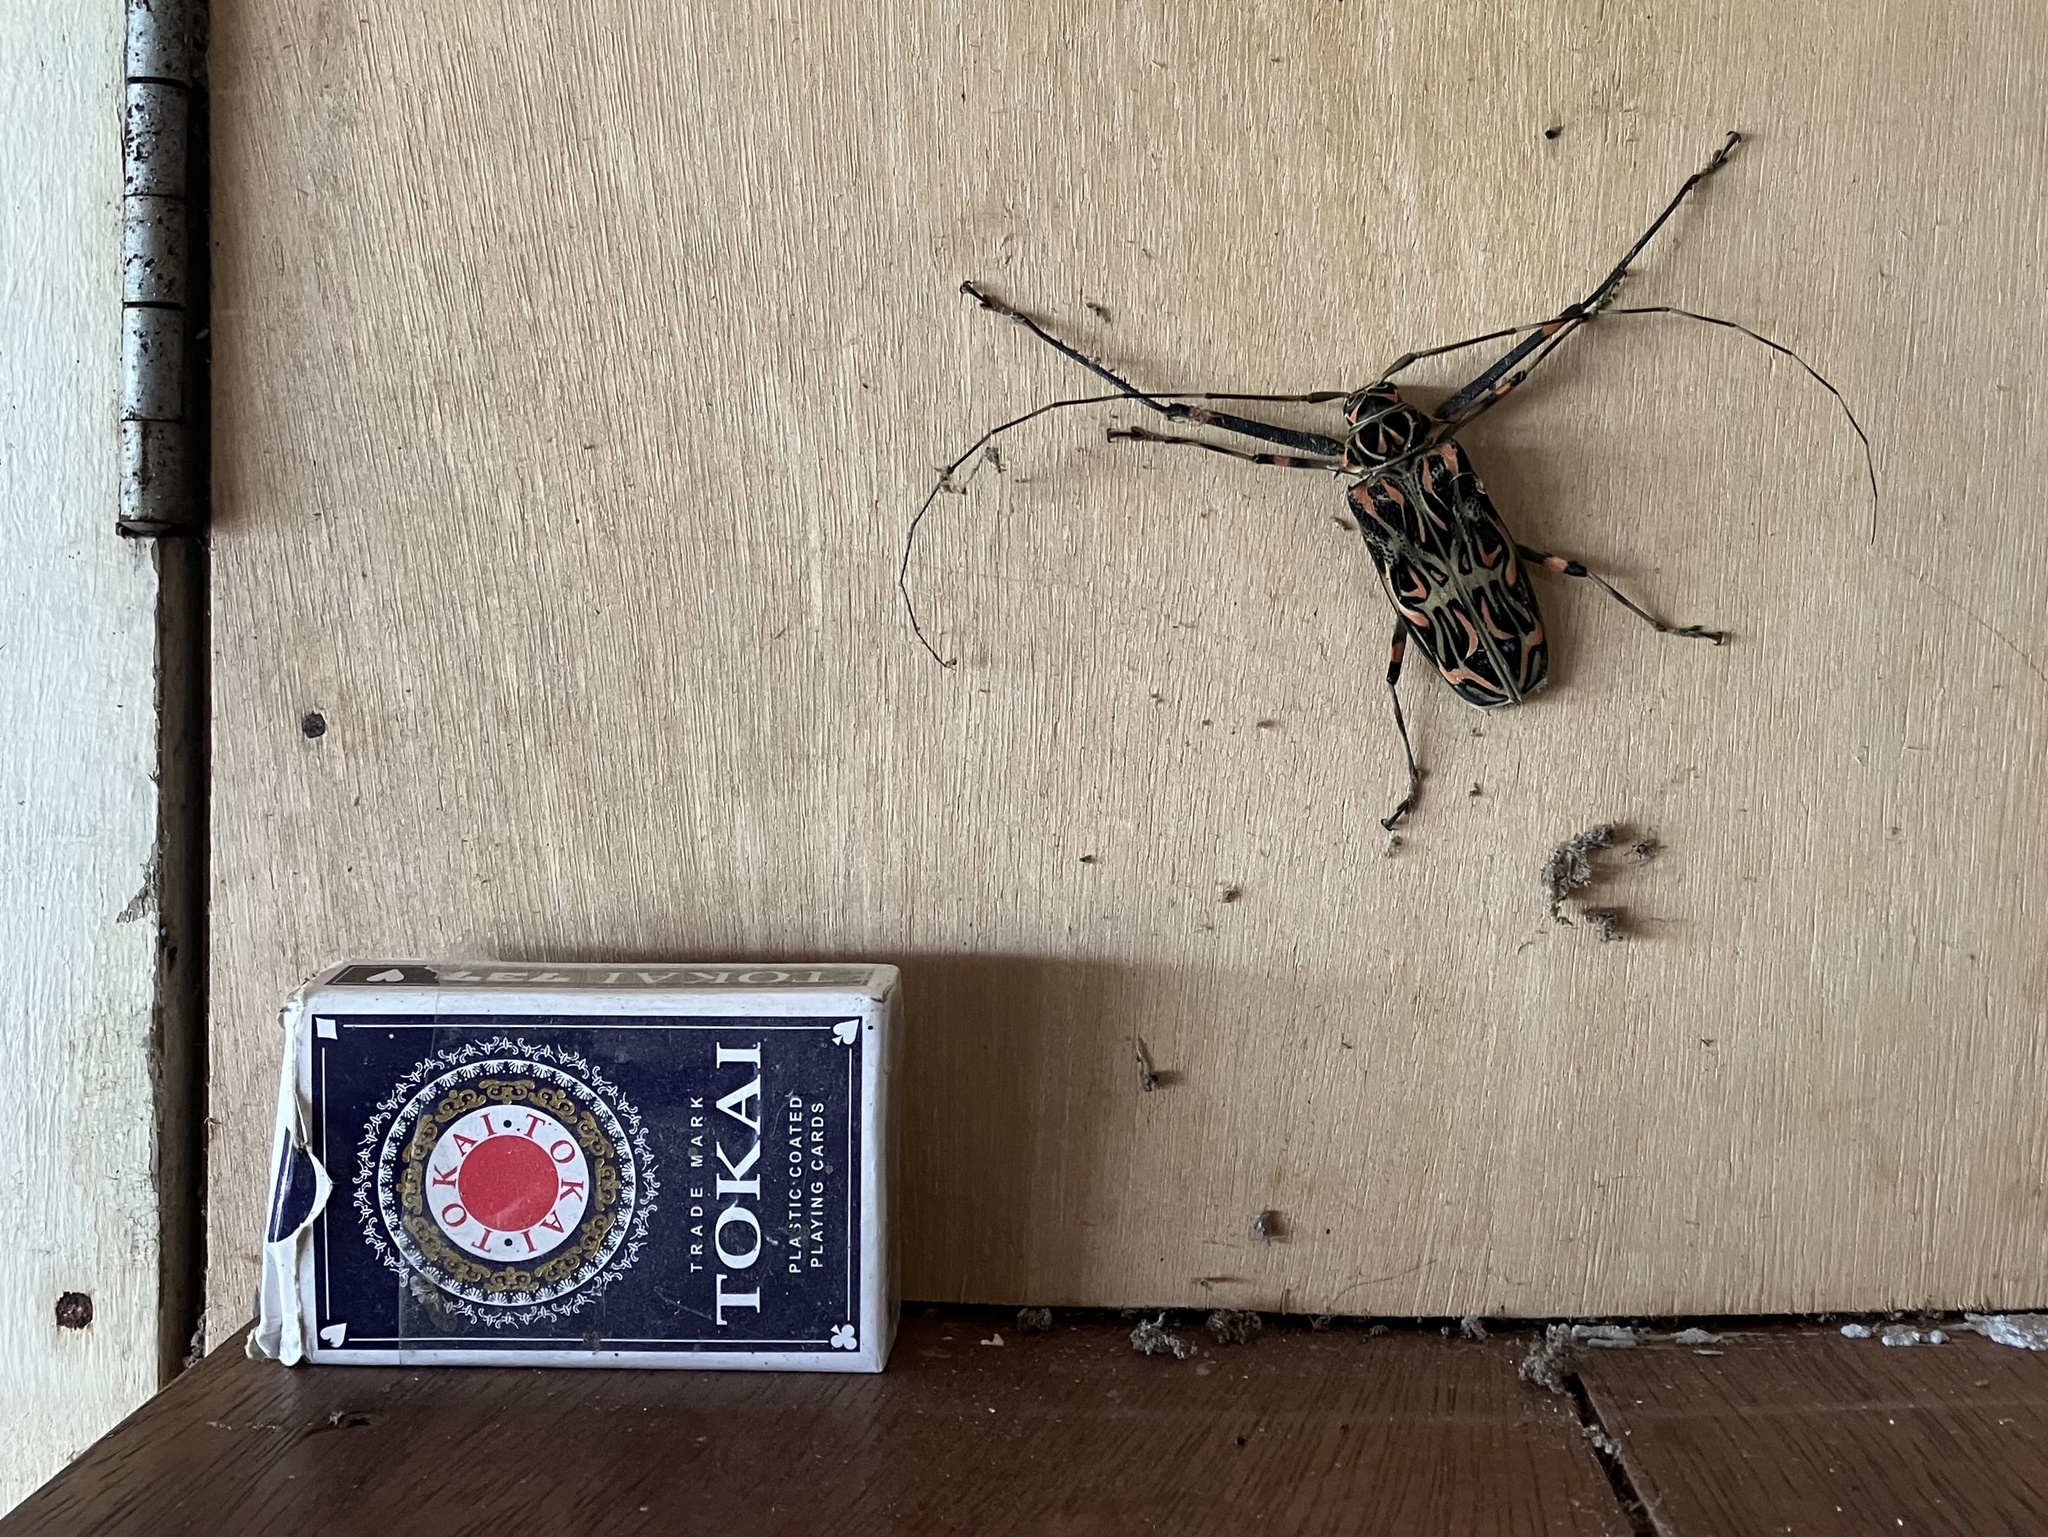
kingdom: Animalia
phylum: Arthropoda
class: Insecta
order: Coleoptera
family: Cerambycidae
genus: Acrocinus
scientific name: Acrocinus longimanus
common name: Arlequin
